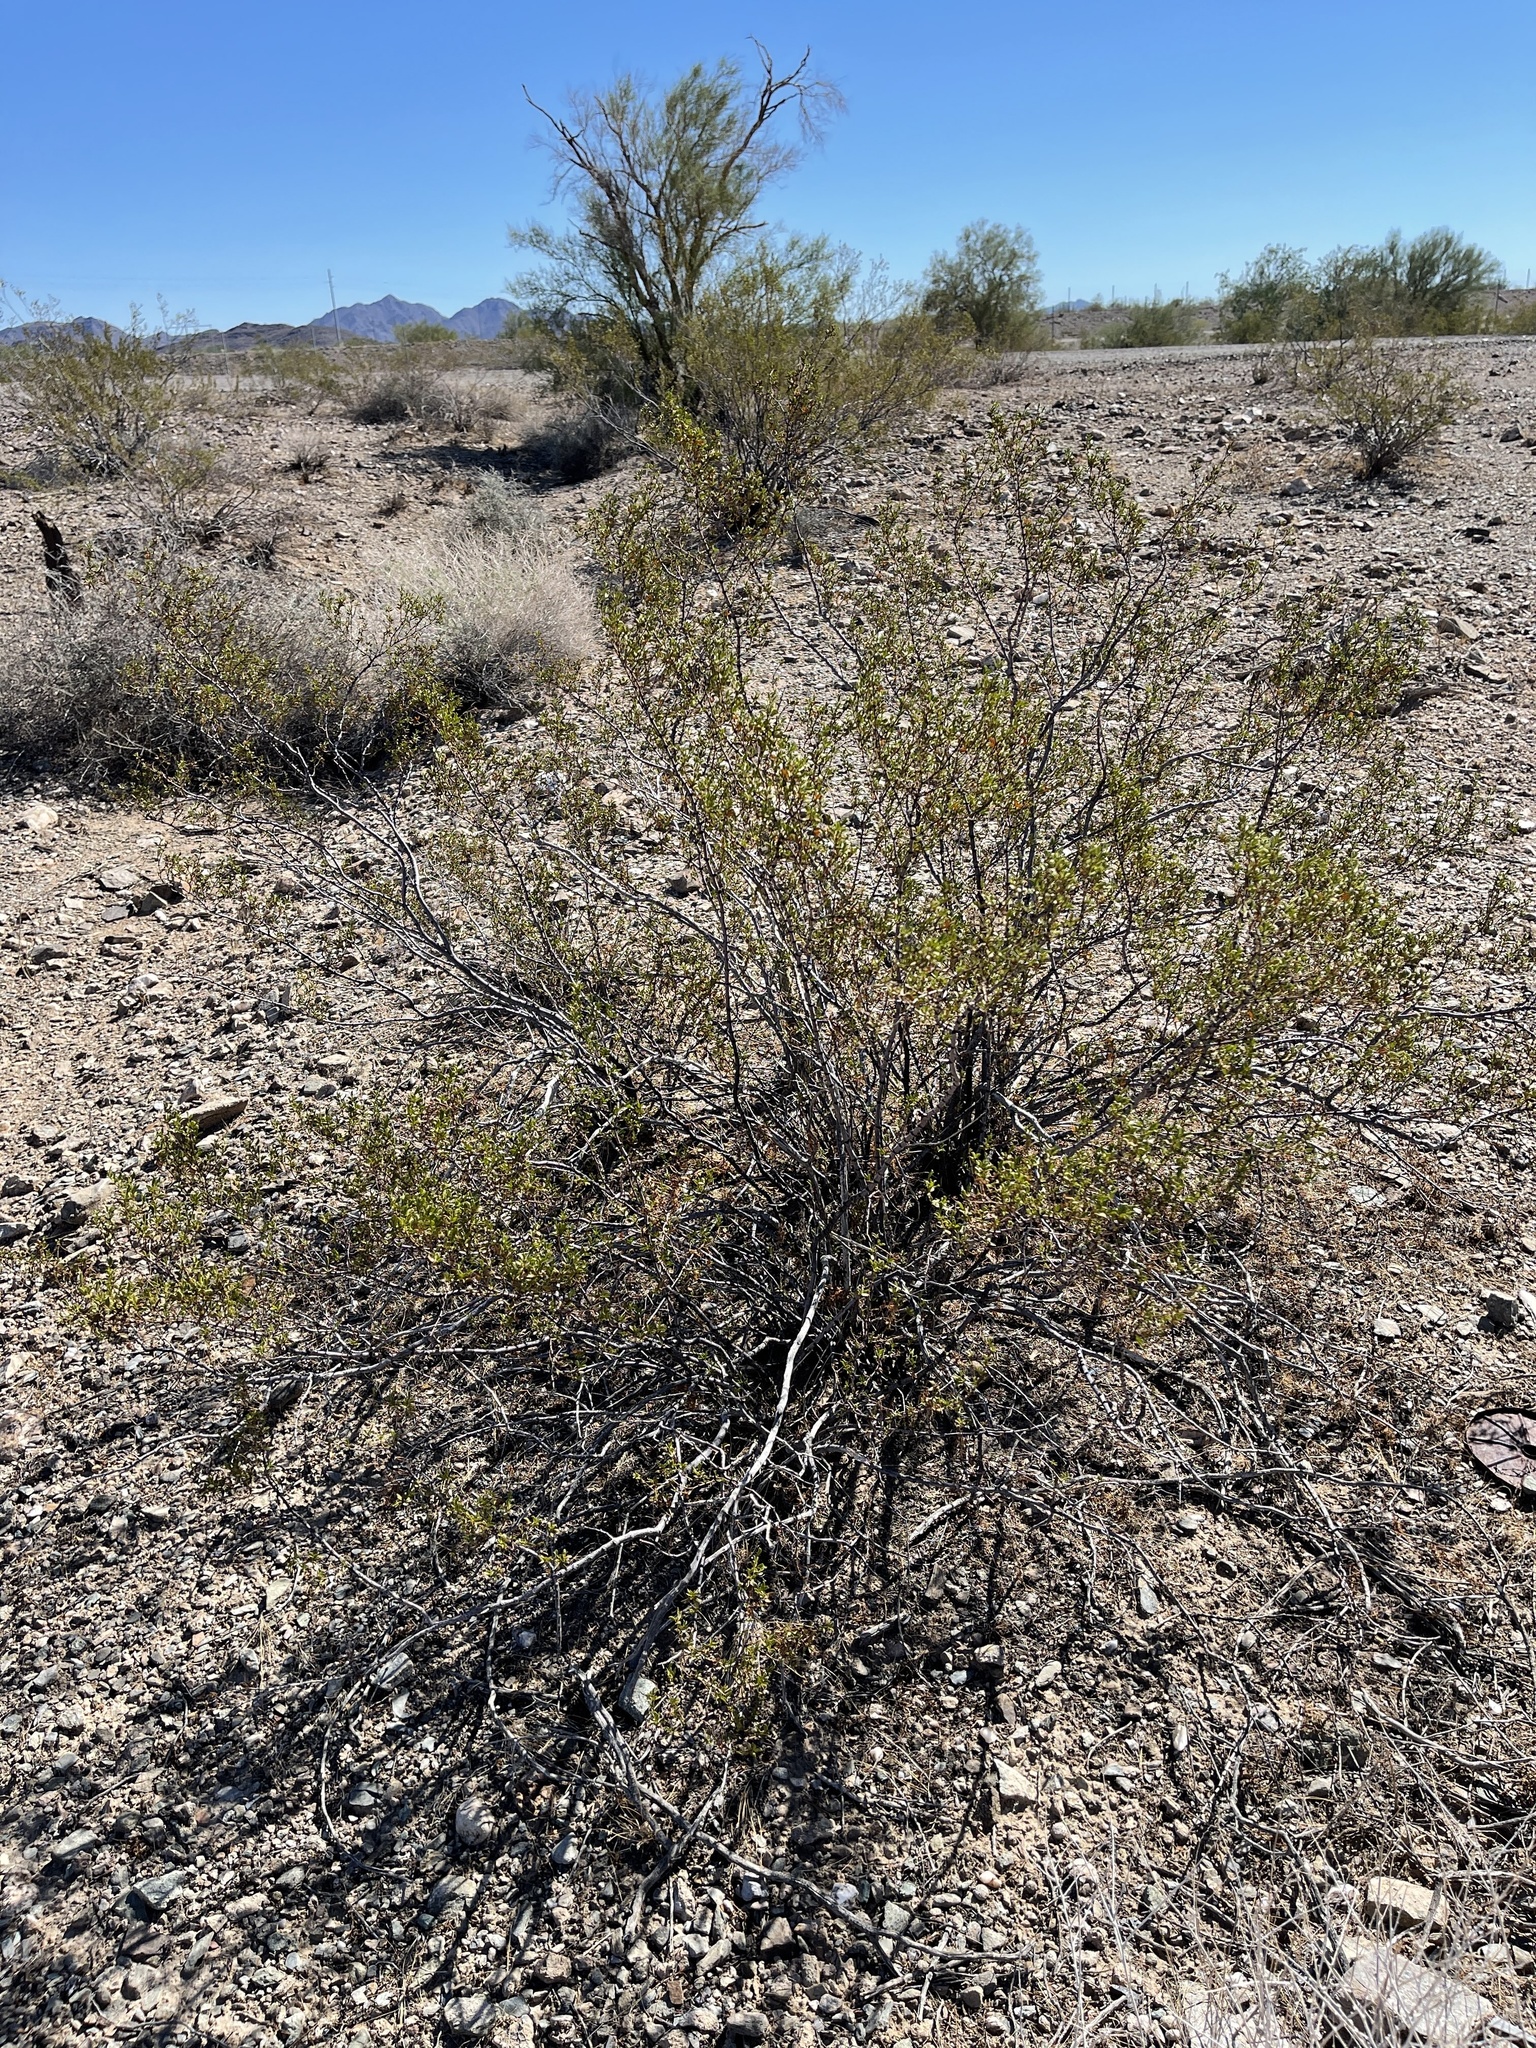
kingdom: Plantae
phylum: Tracheophyta
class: Magnoliopsida
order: Zygophyllales
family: Zygophyllaceae
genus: Larrea
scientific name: Larrea tridentata
